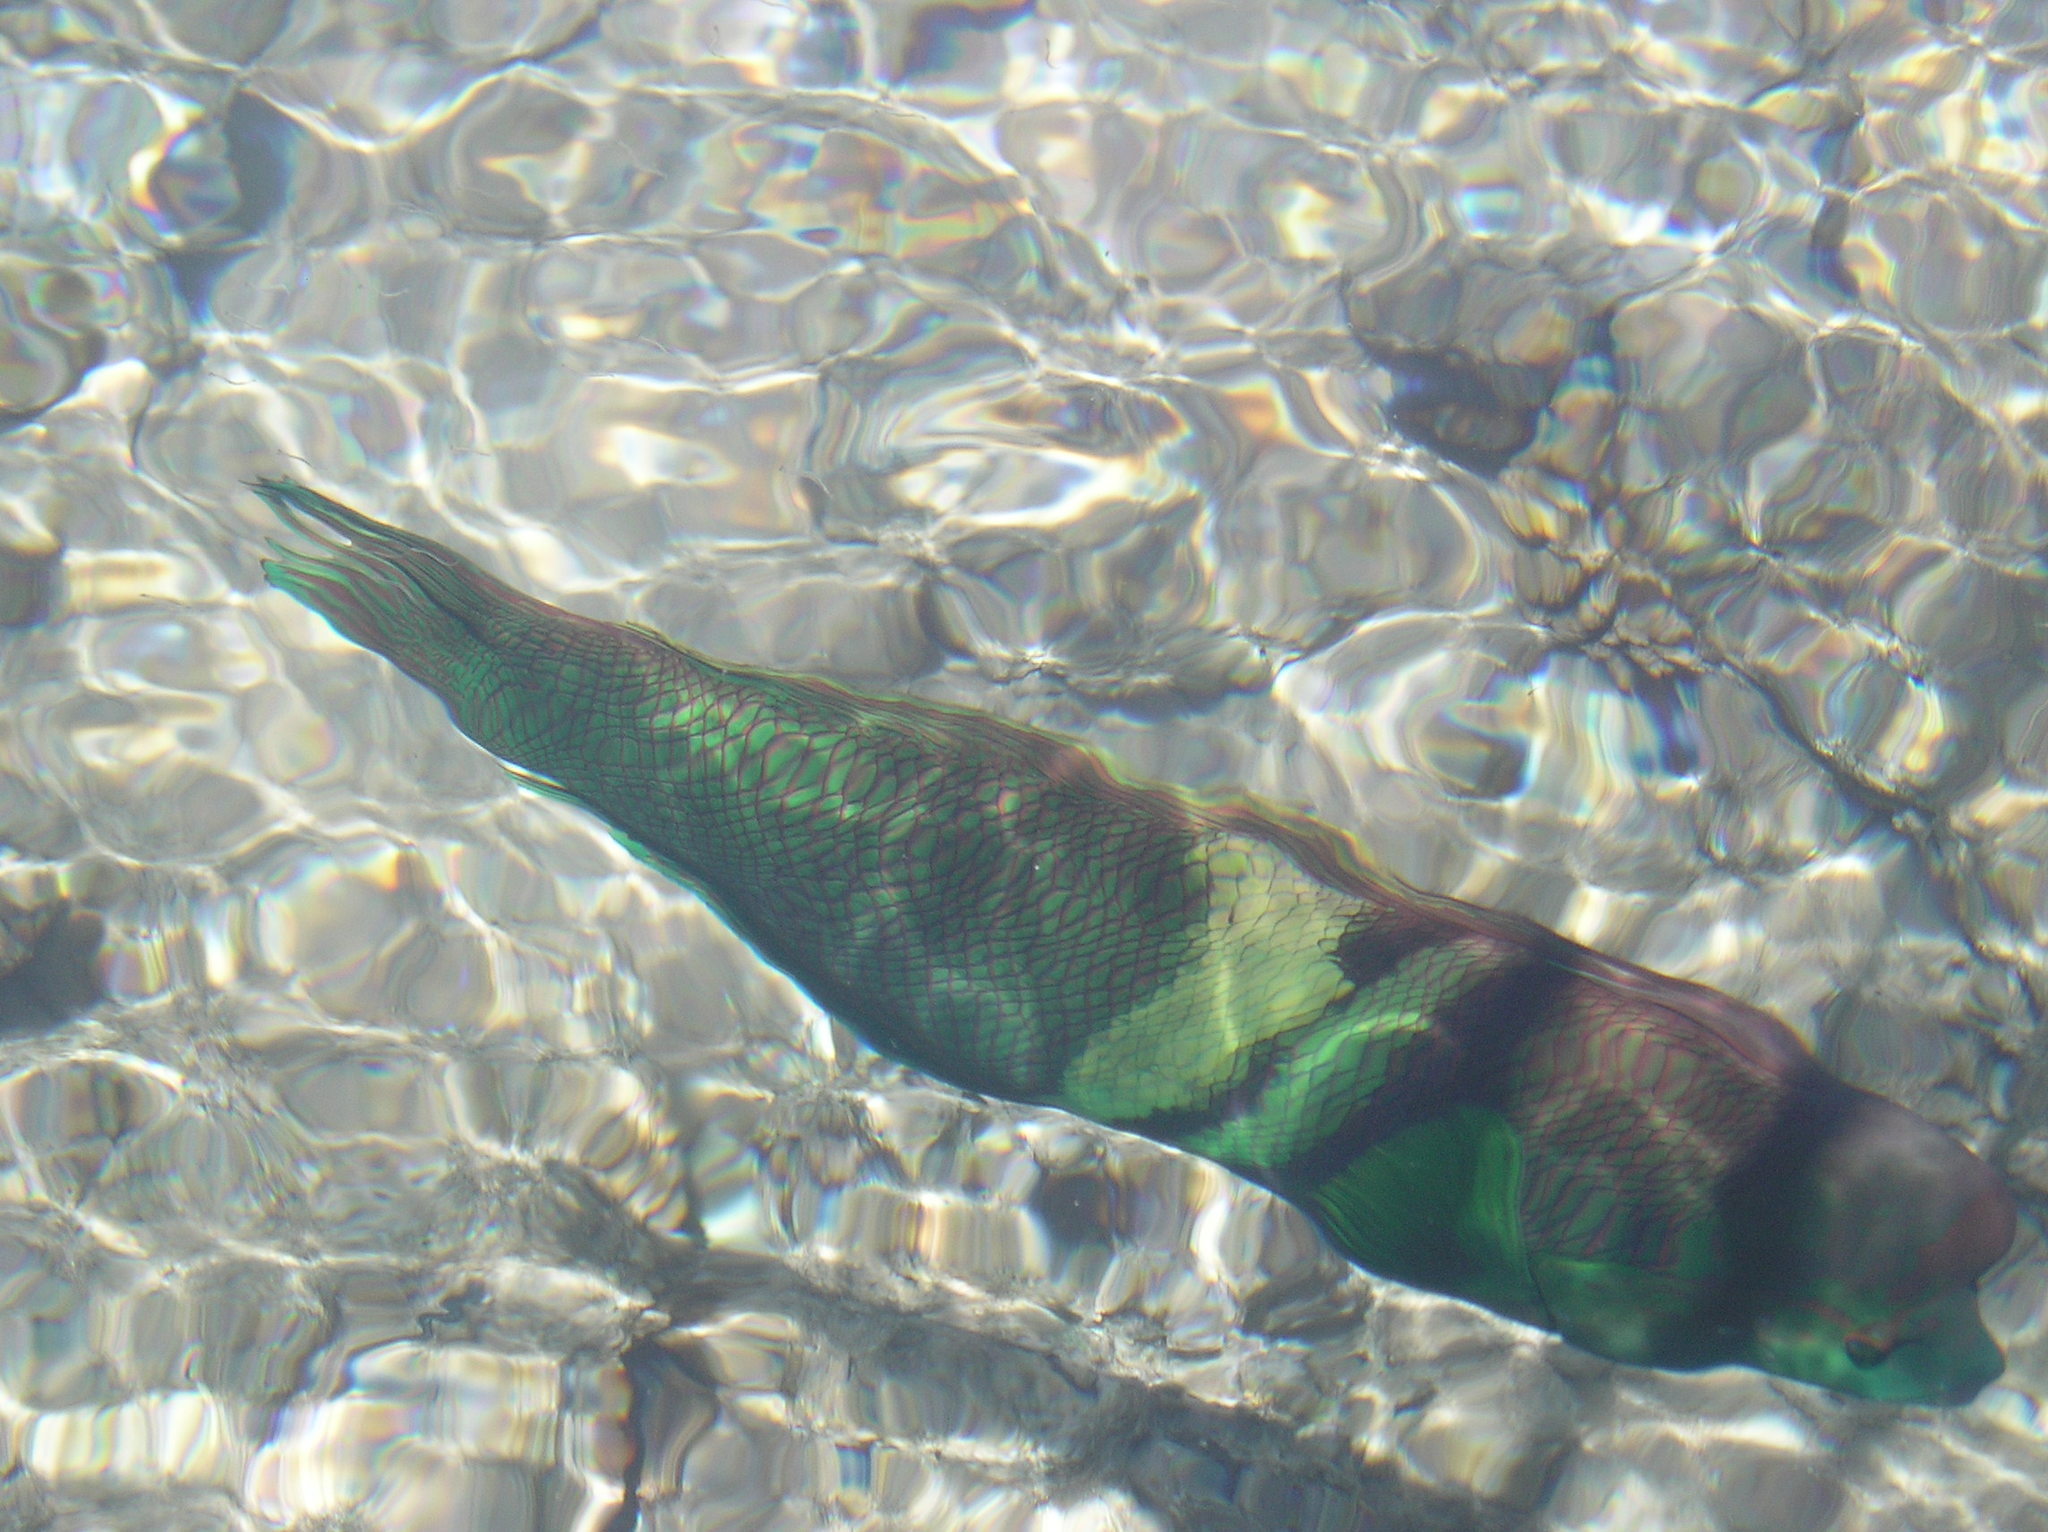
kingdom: Animalia
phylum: Chordata
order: Perciformes
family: Labridae
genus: Coris
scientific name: Coris aygula
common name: Clown coris
